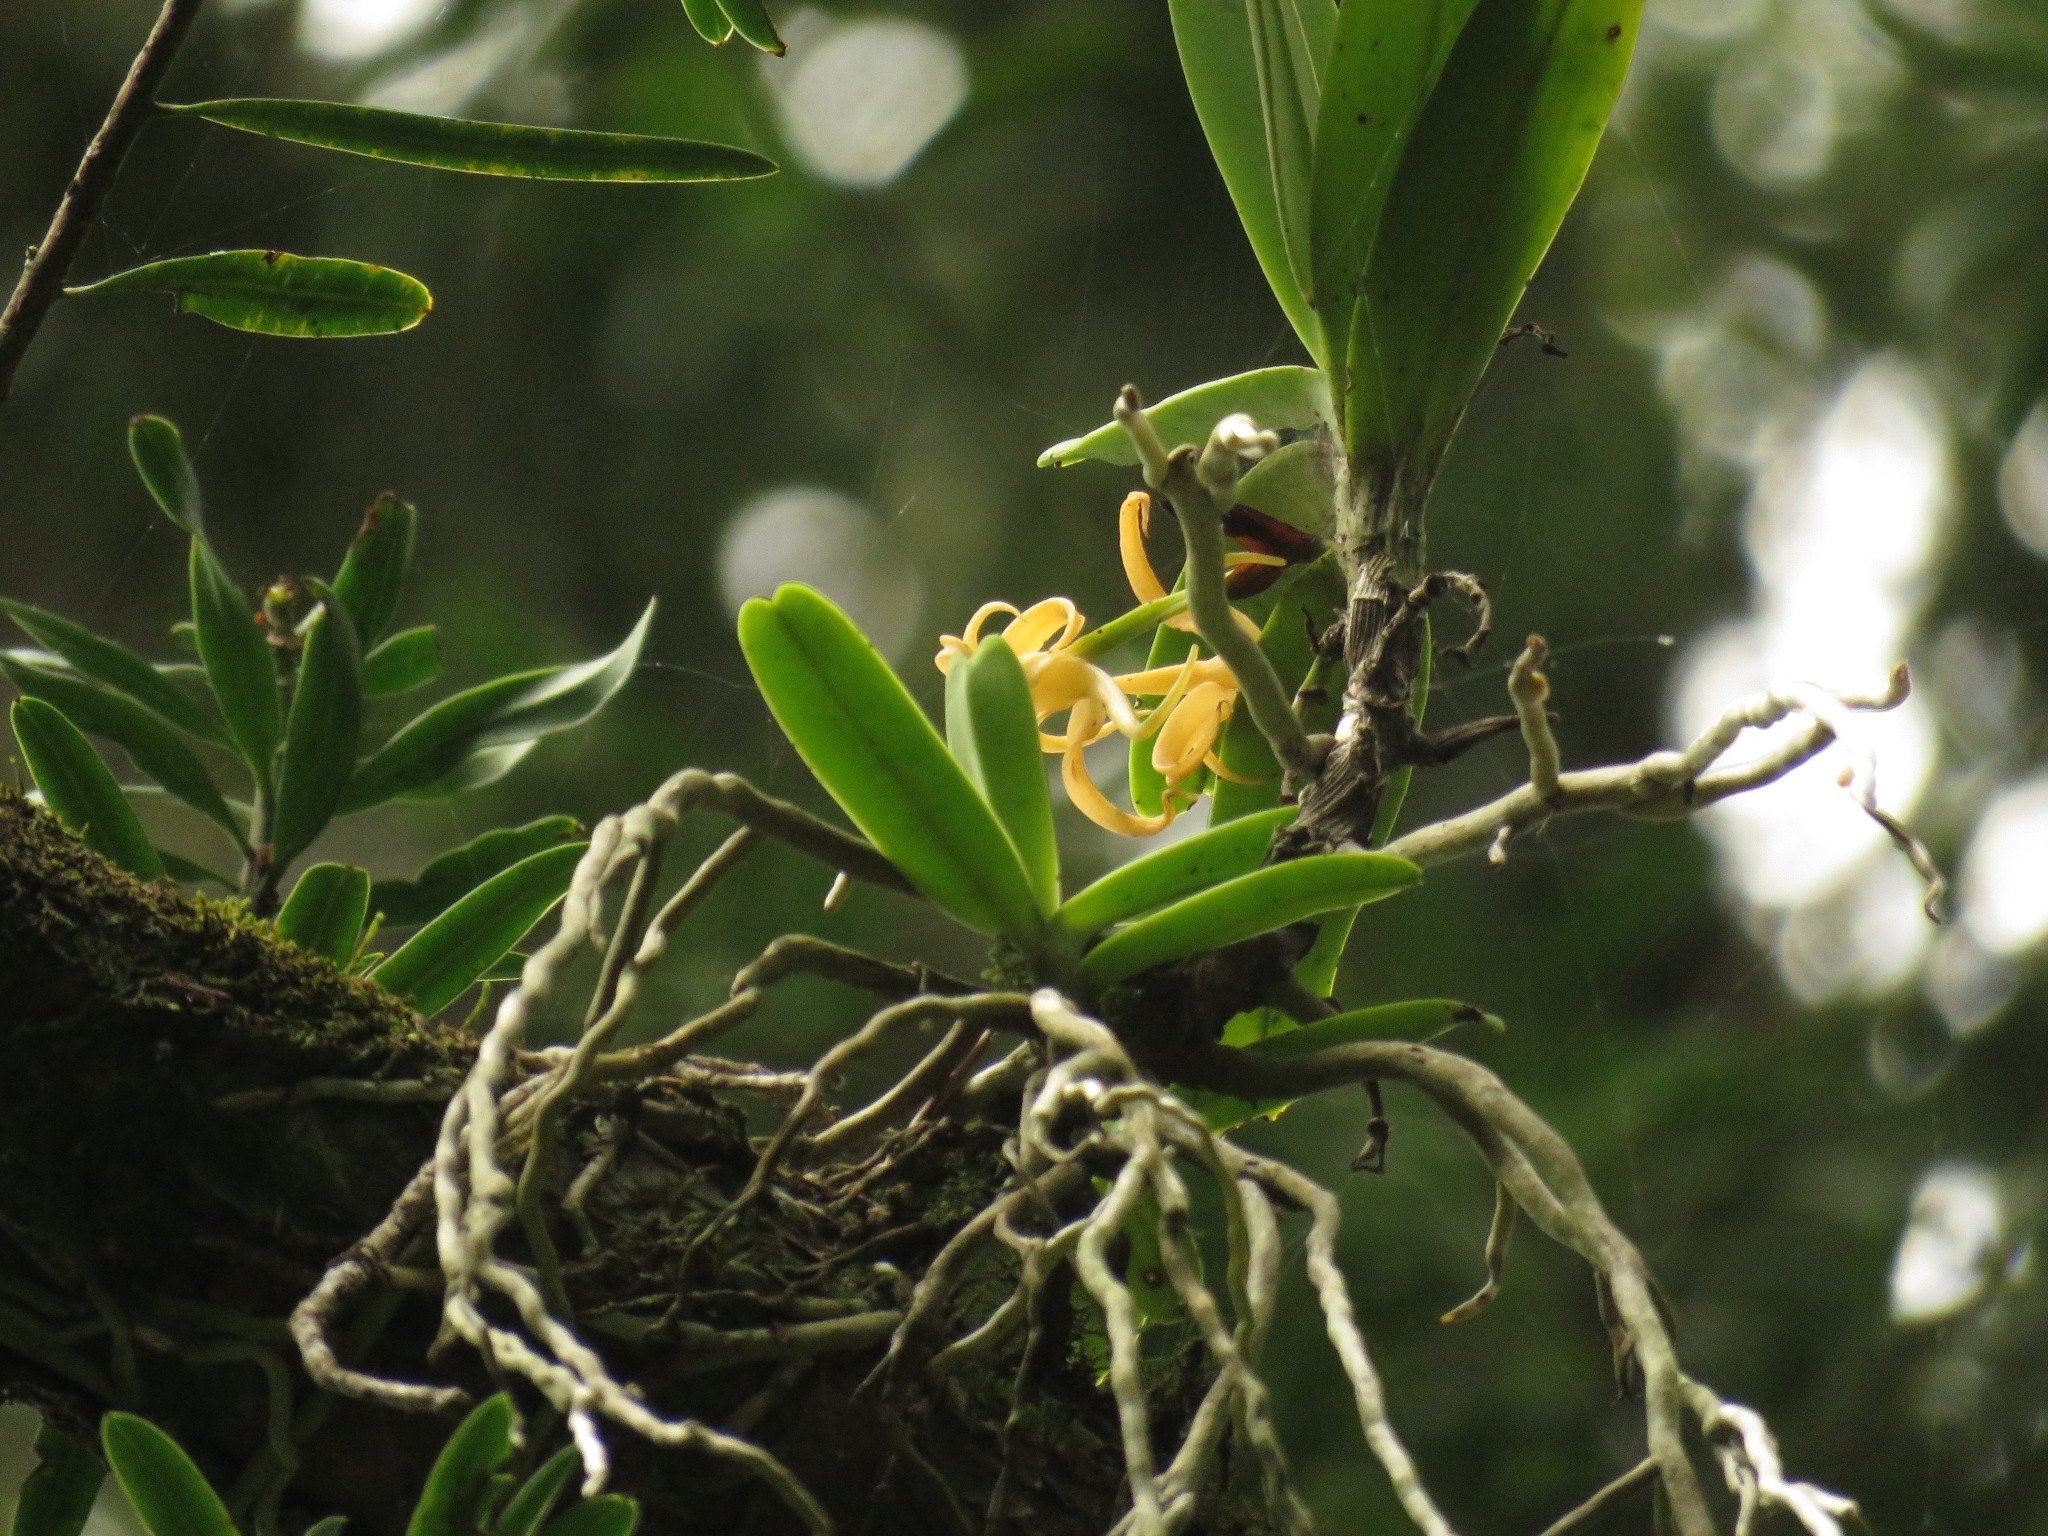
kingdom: Plantae
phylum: Tracheophyta
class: Liliopsida
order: Asparagales
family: Orchidaceae
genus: Cyrtorchis
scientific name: Cyrtorchis arcuata
